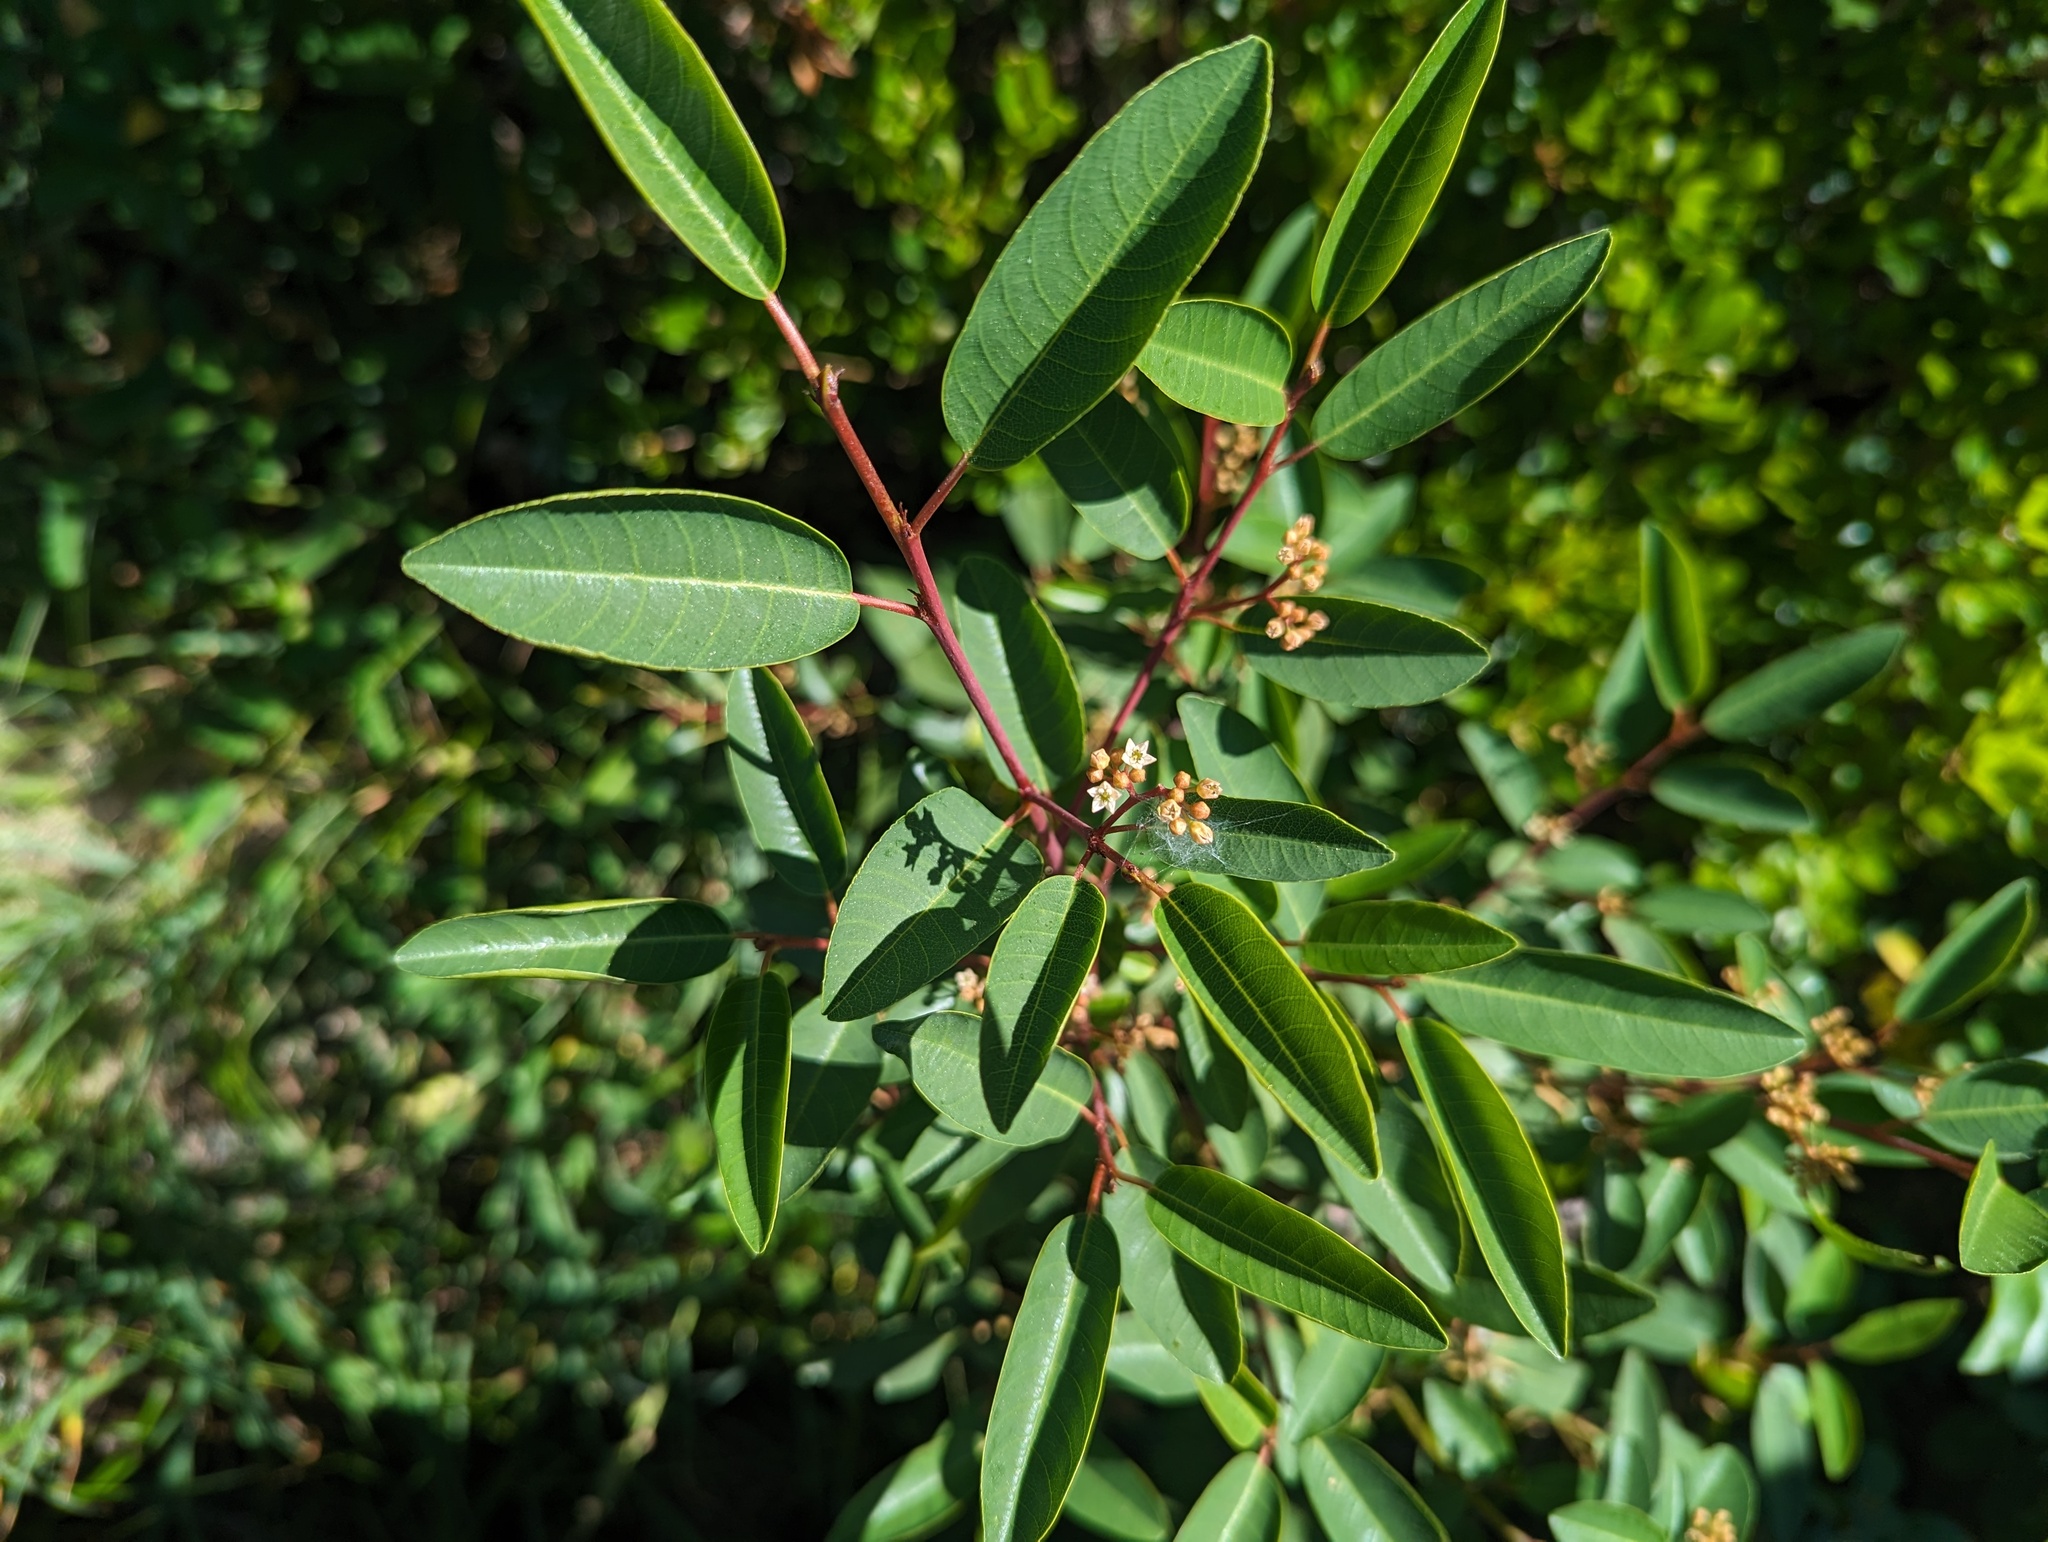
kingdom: Plantae
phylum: Tracheophyta
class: Magnoliopsida
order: Rosales
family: Rhamnaceae
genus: Frangula
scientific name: Frangula californica
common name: California buckthorn
